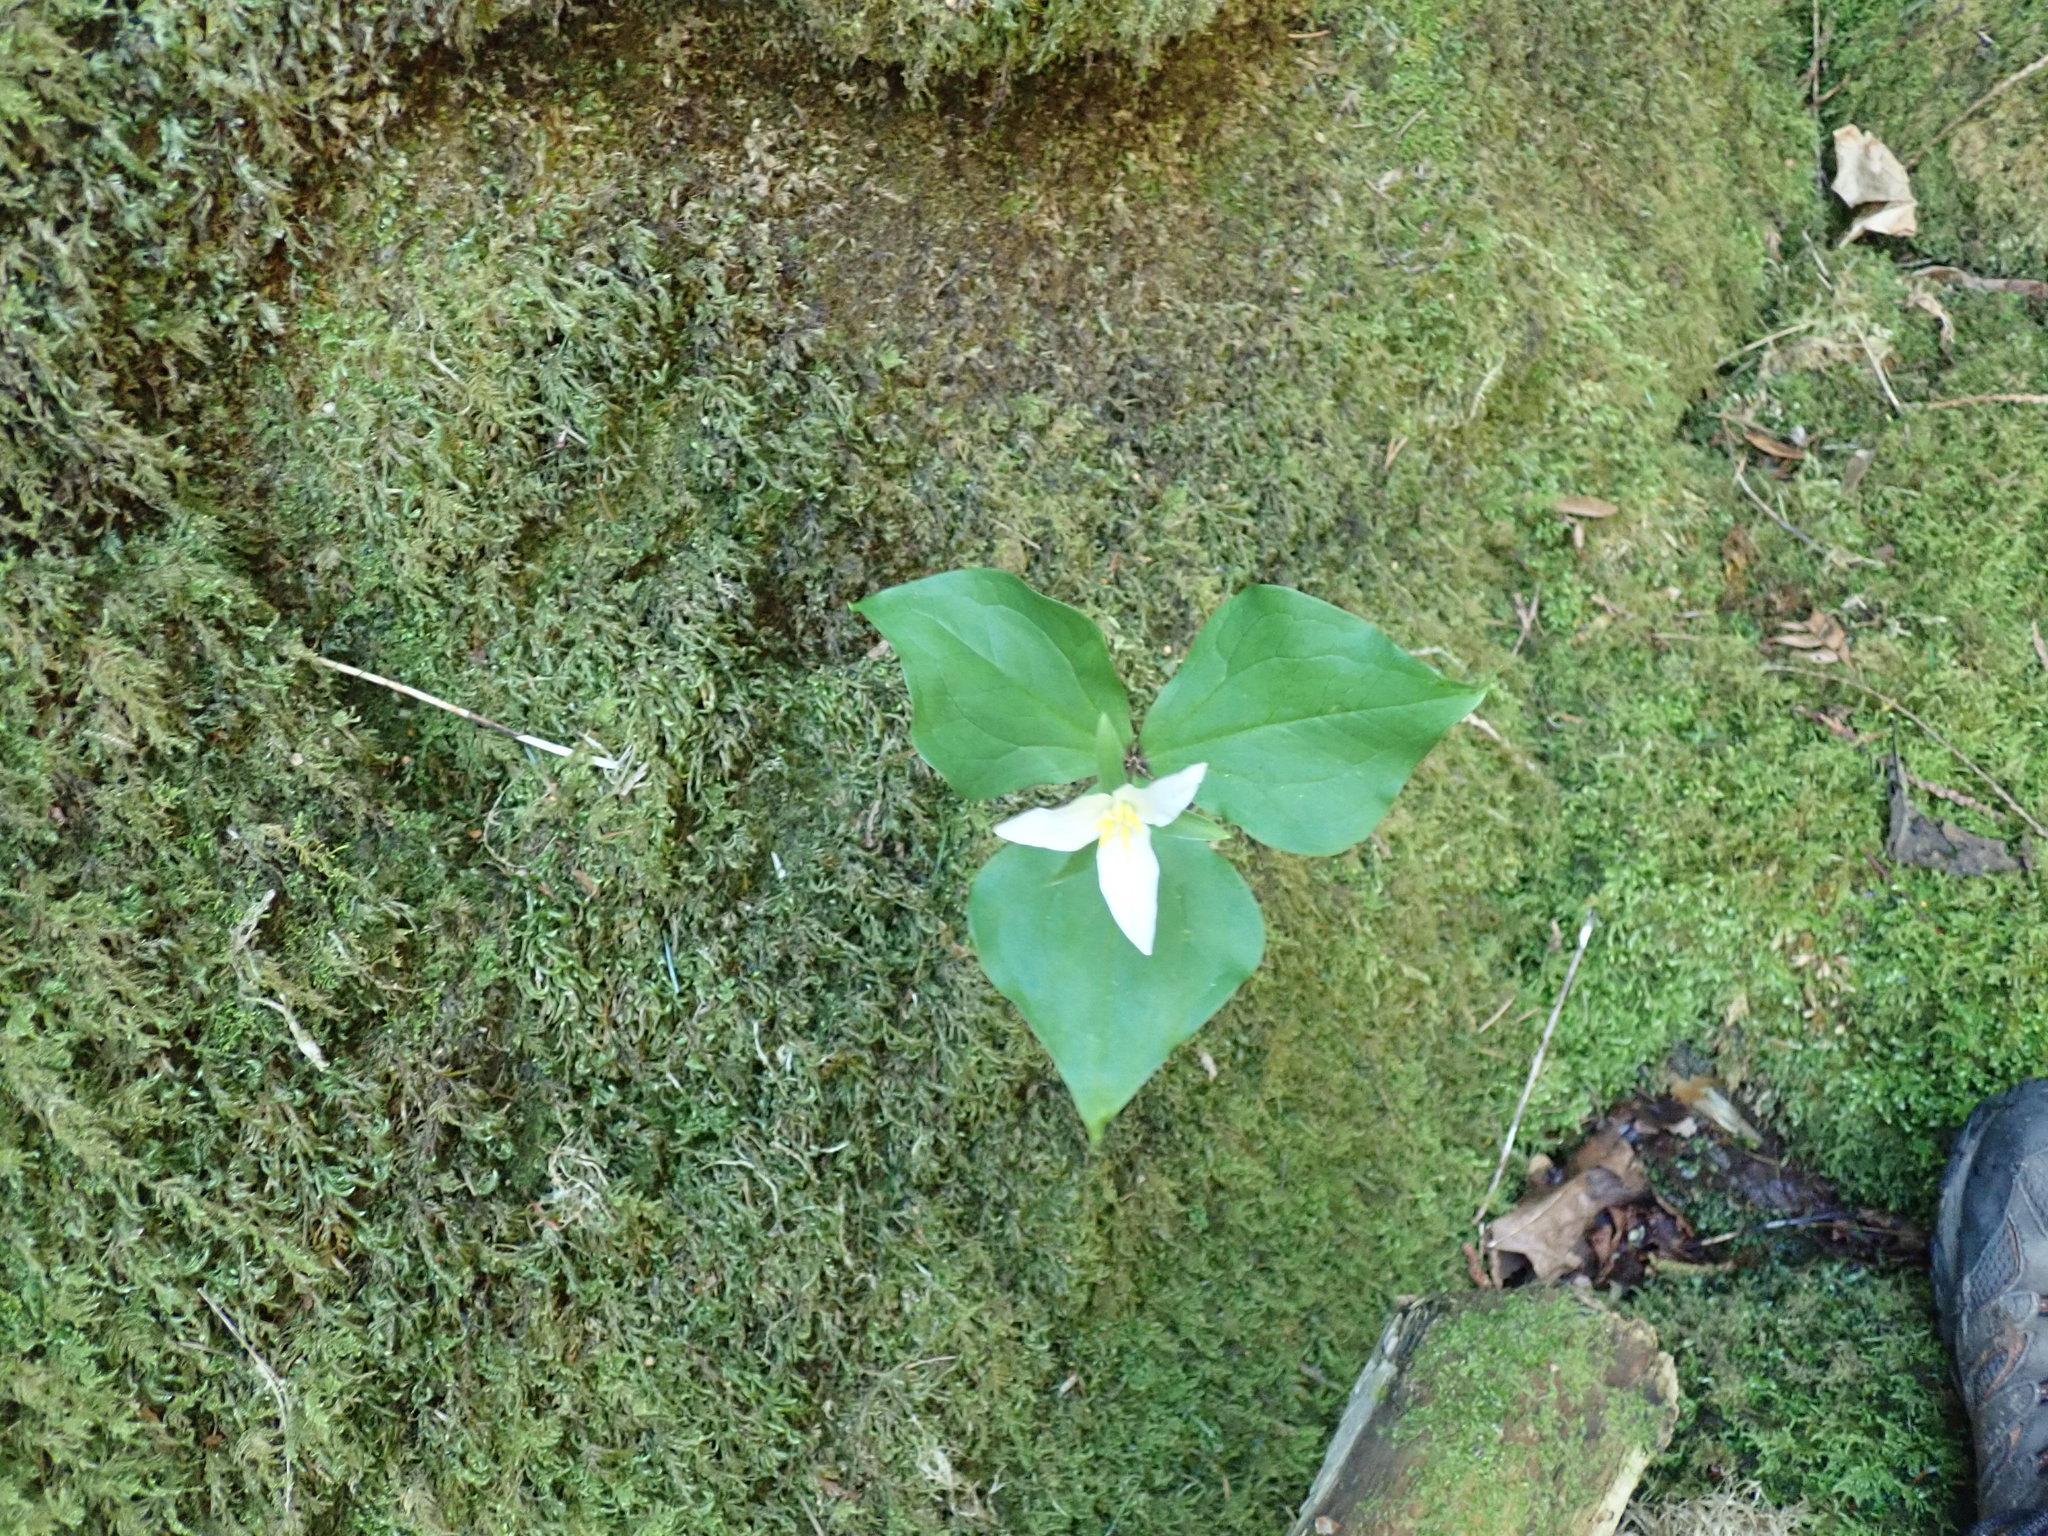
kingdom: Plantae
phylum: Tracheophyta
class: Liliopsida
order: Liliales
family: Melanthiaceae
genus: Trillium
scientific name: Trillium ovatum
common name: Pacific trillium
